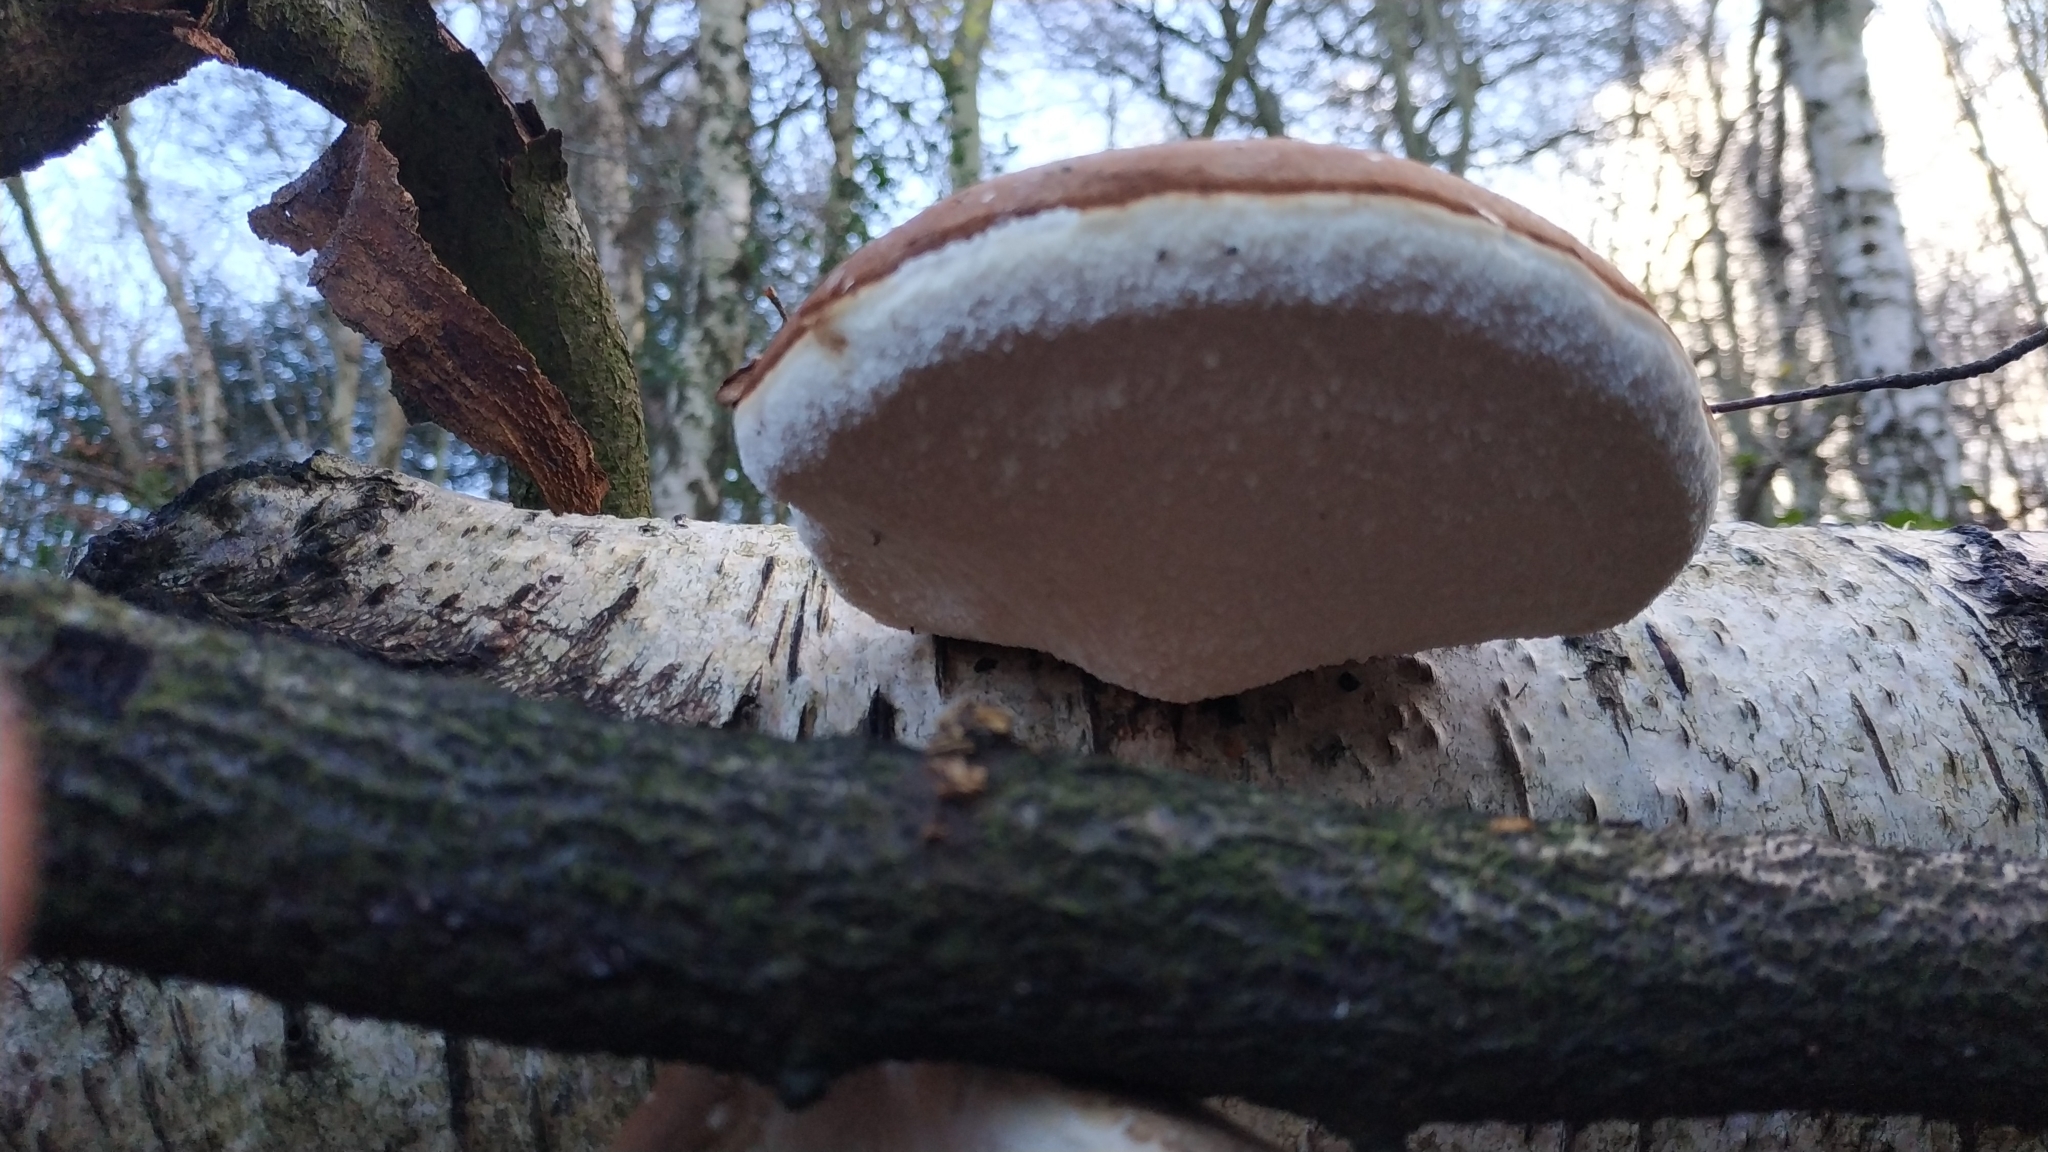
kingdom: Fungi
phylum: Basidiomycota
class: Agaricomycetes
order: Polyporales
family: Fomitopsidaceae
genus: Fomitopsis
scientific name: Fomitopsis betulina
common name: Birch polypore
